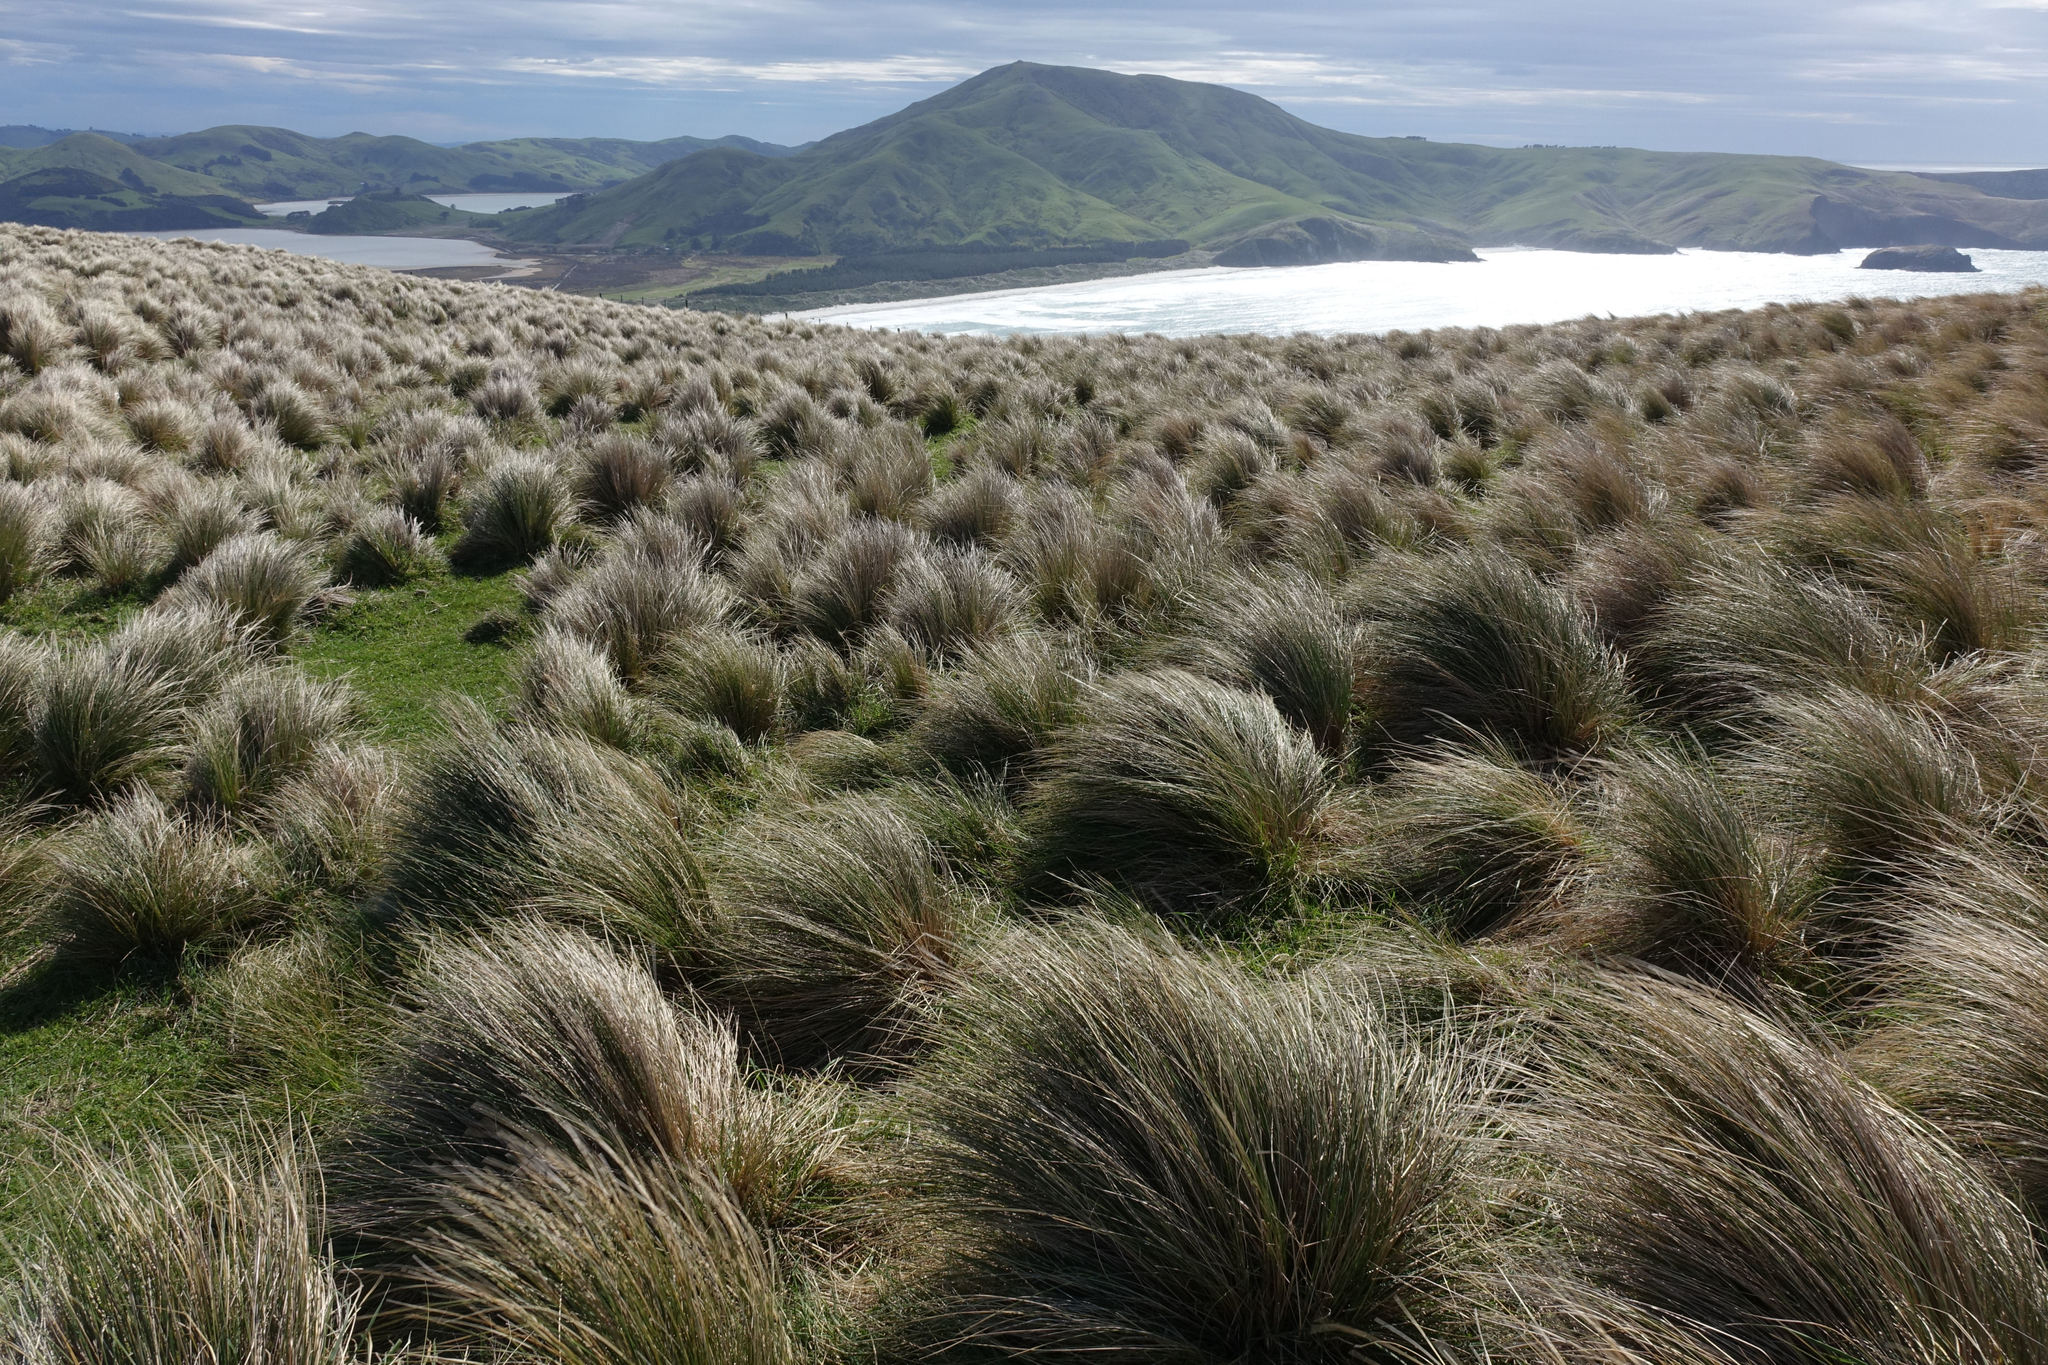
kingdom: Plantae
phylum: Tracheophyta
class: Liliopsida
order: Poales
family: Poaceae
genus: Poa
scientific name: Poa cita
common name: Silver tussock
